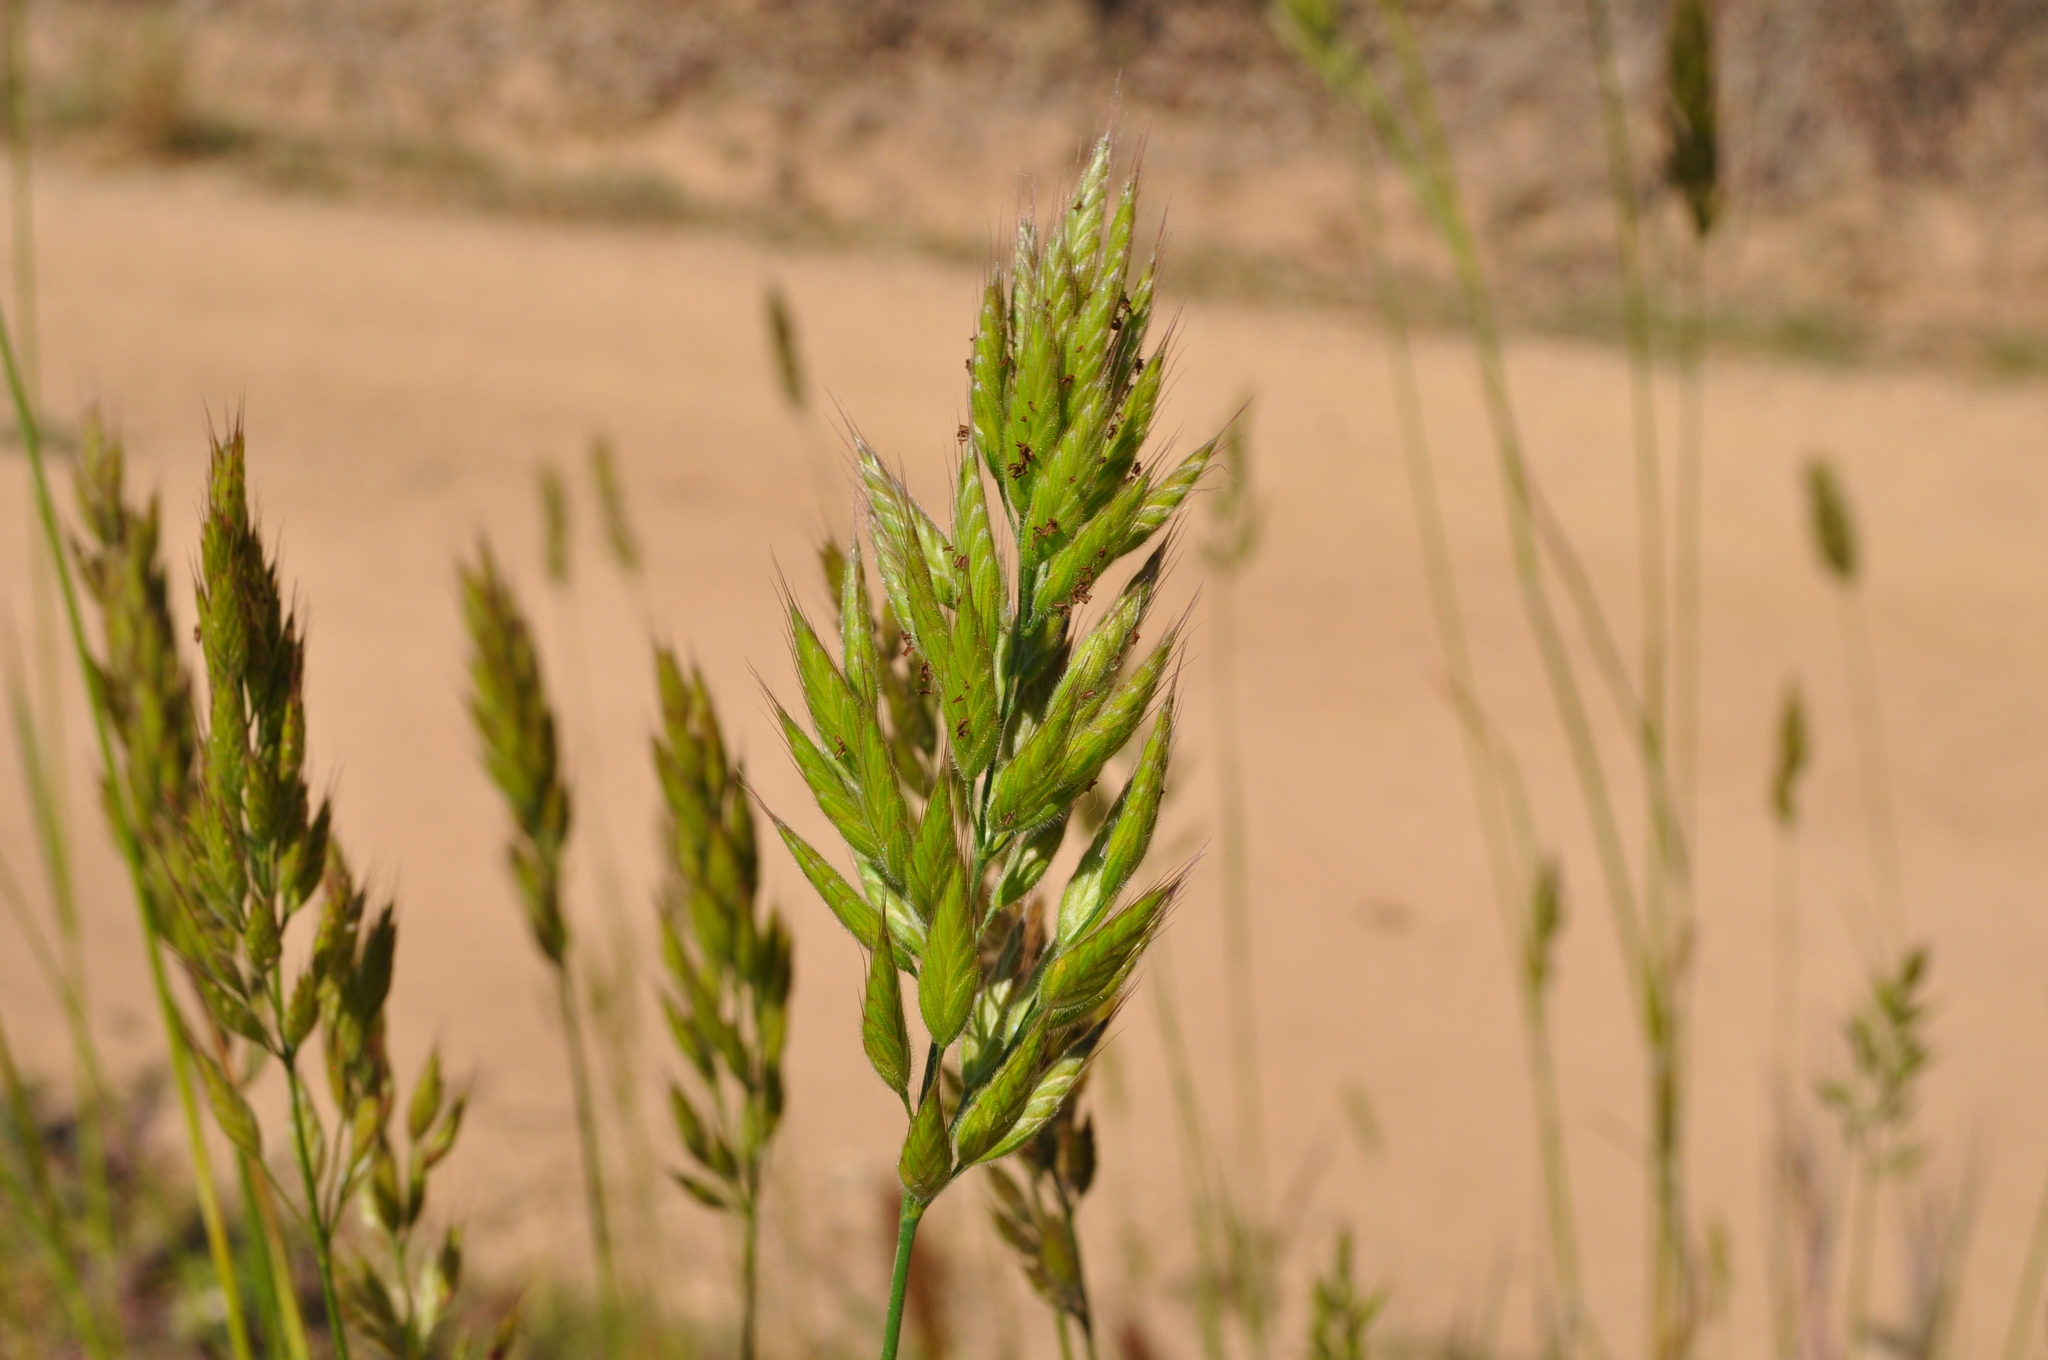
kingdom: Plantae
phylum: Tracheophyta
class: Liliopsida
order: Poales
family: Poaceae
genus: Bromus
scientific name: Bromus hordeaceus
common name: Soft brome
